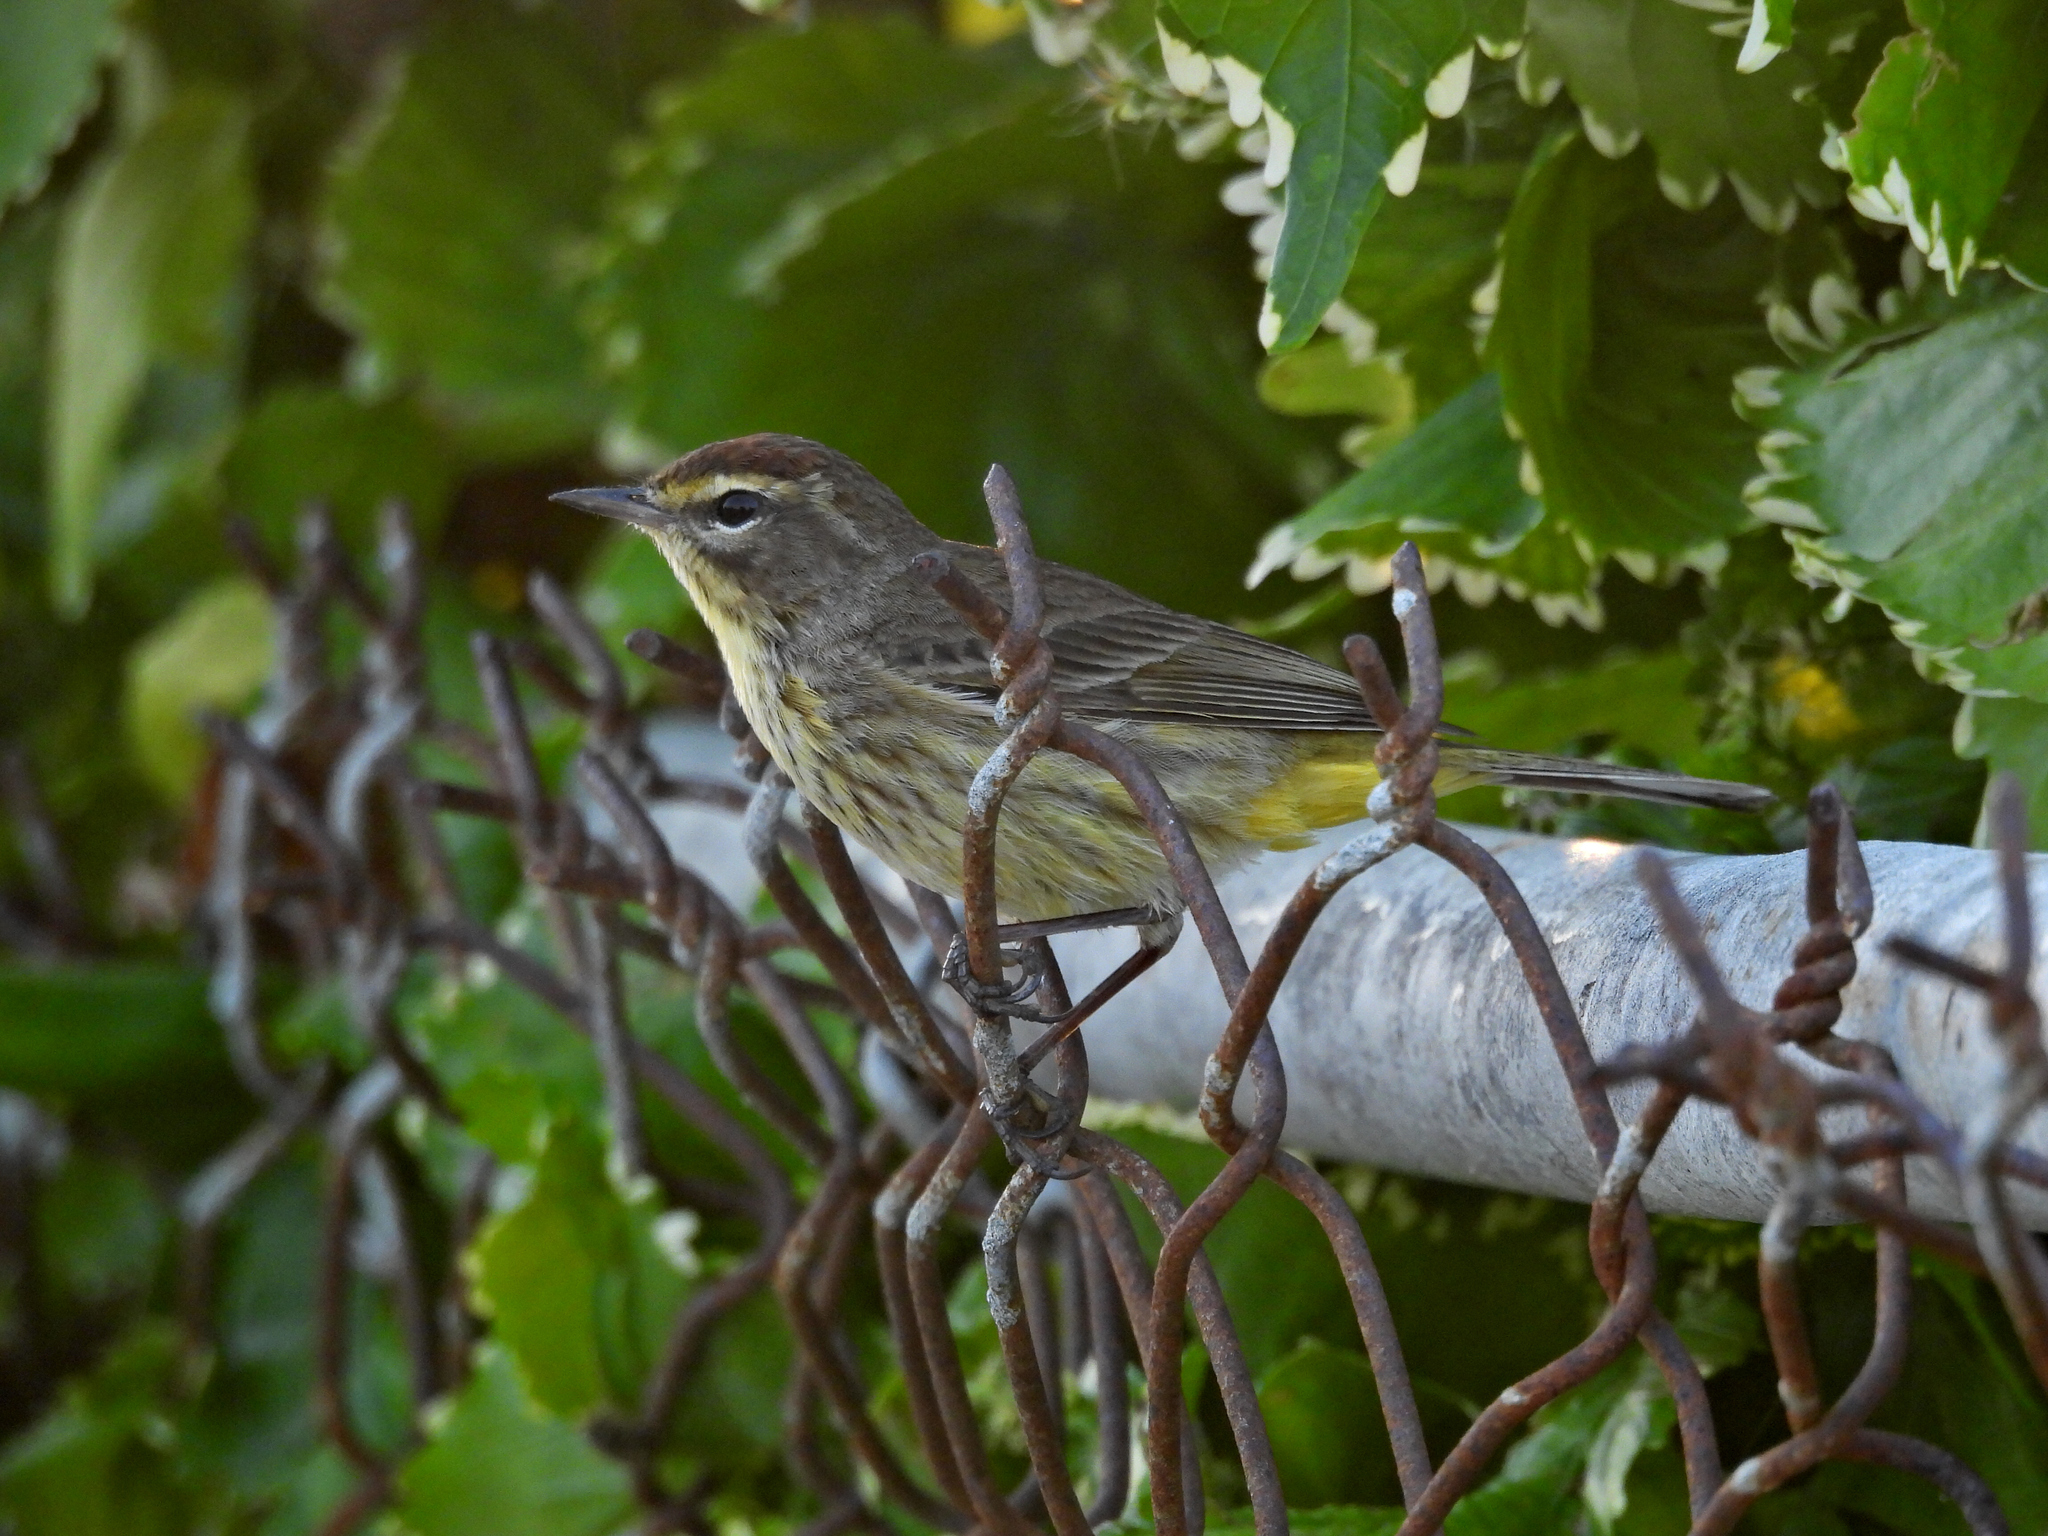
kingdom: Animalia
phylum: Chordata
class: Aves
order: Passeriformes
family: Parulidae
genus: Setophaga
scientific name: Setophaga palmarum
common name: Palm warbler
